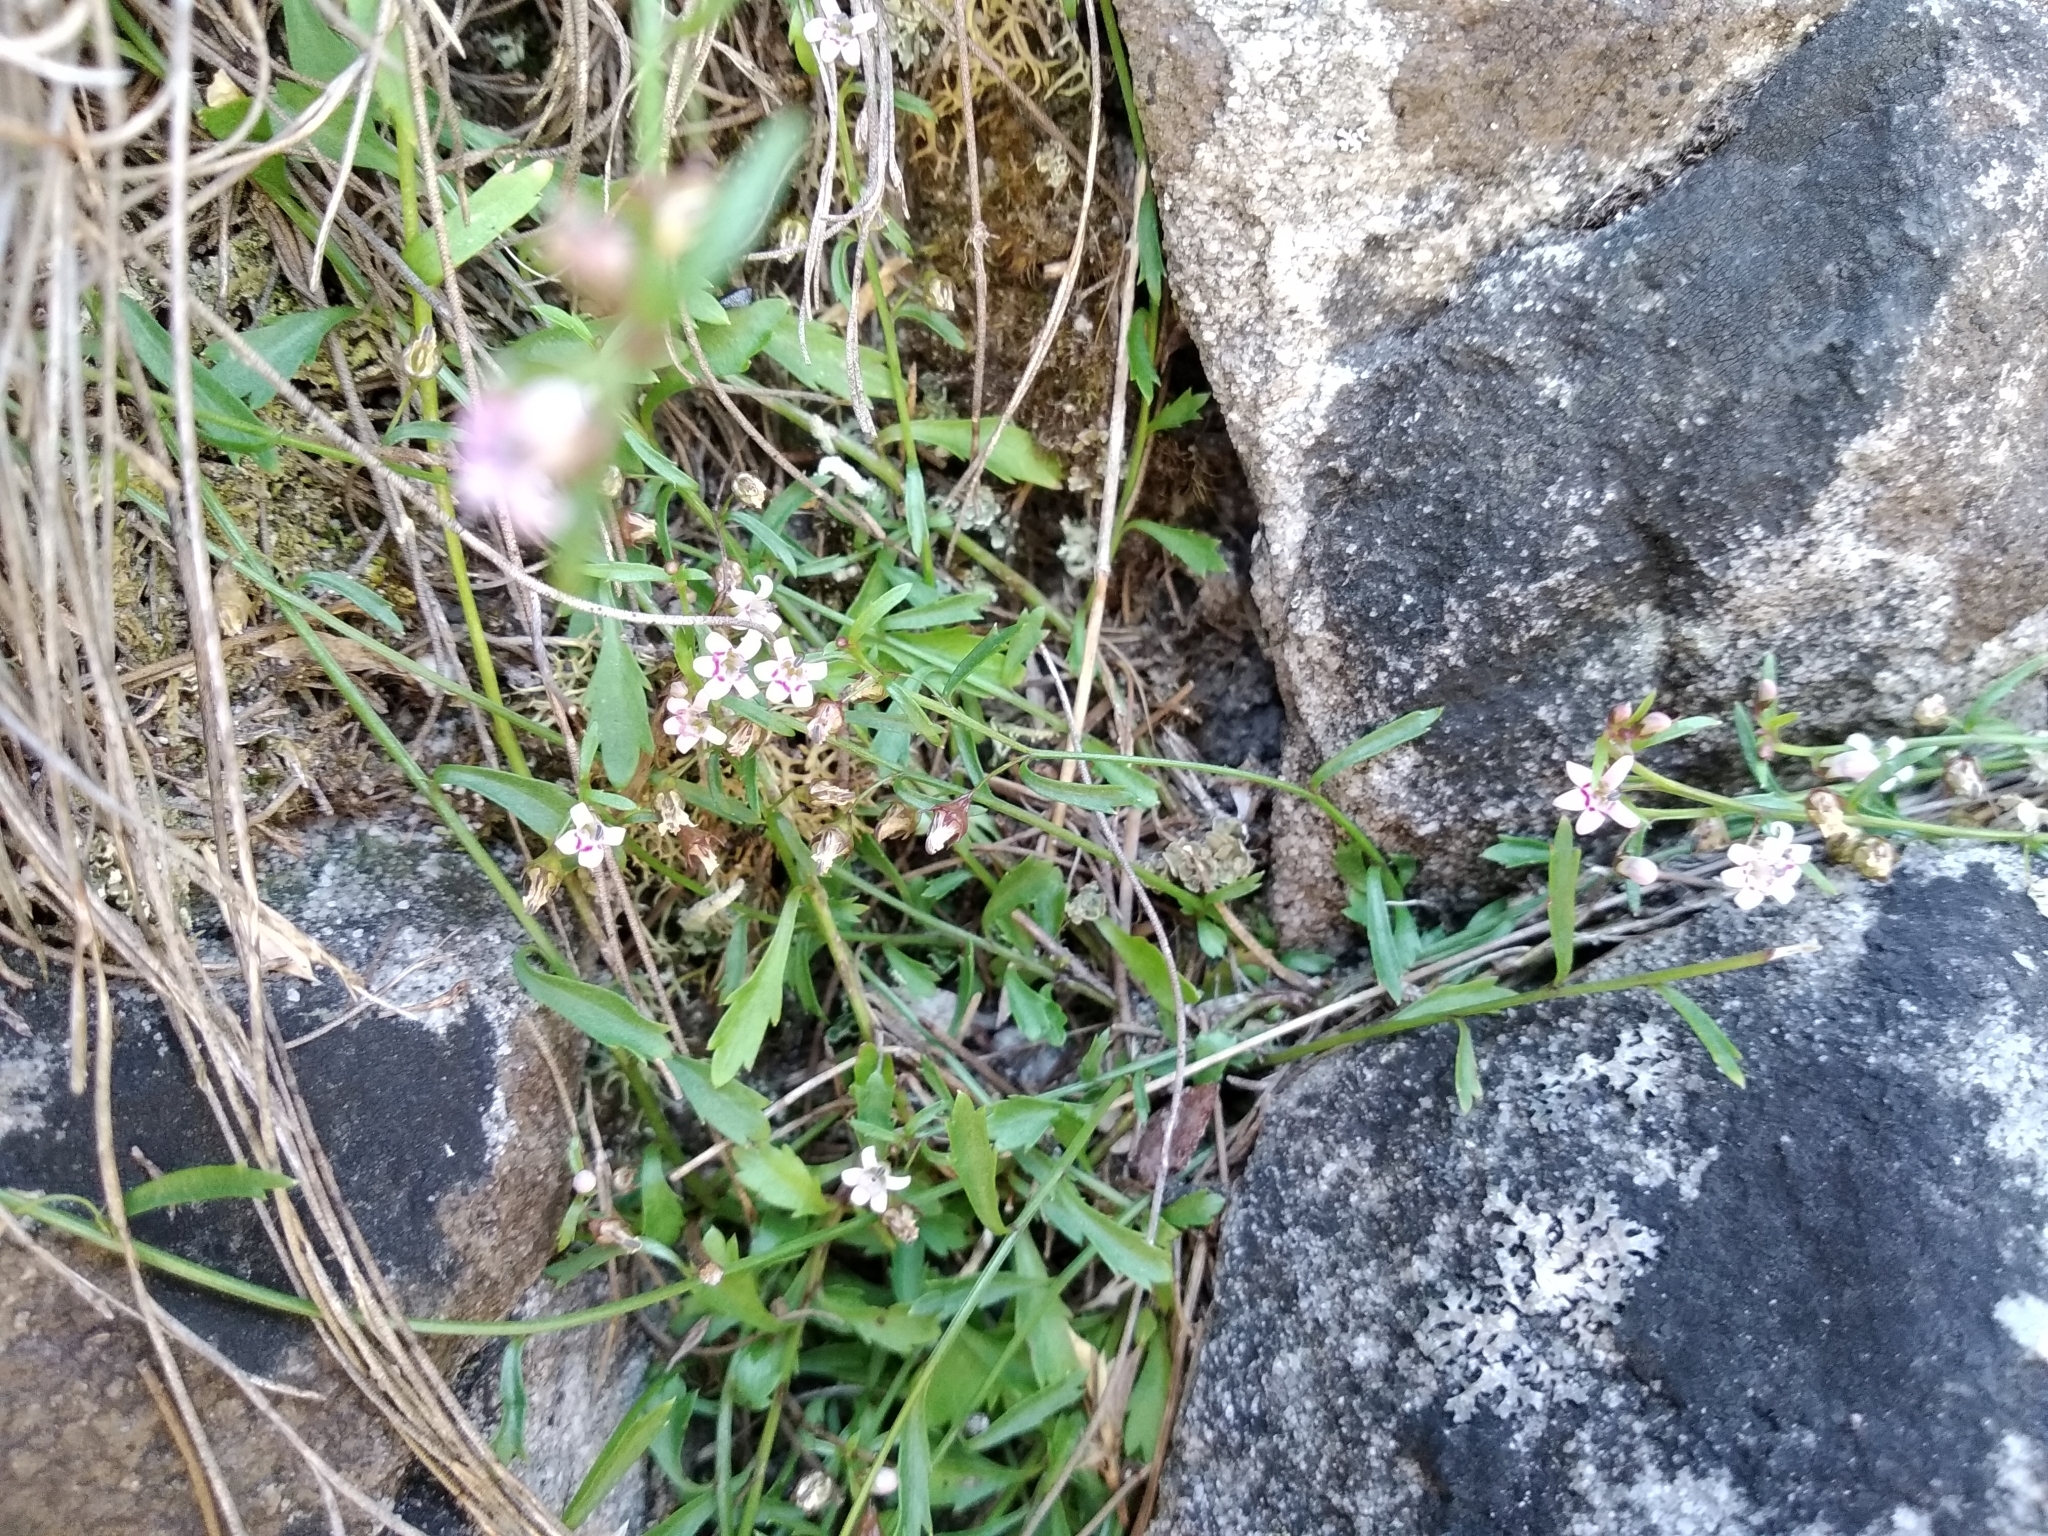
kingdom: Plantae
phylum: Tracheophyta
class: Magnoliopsida
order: Asterales
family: Campanulaceae
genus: Lobelia
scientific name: Lobelia eckloniana
